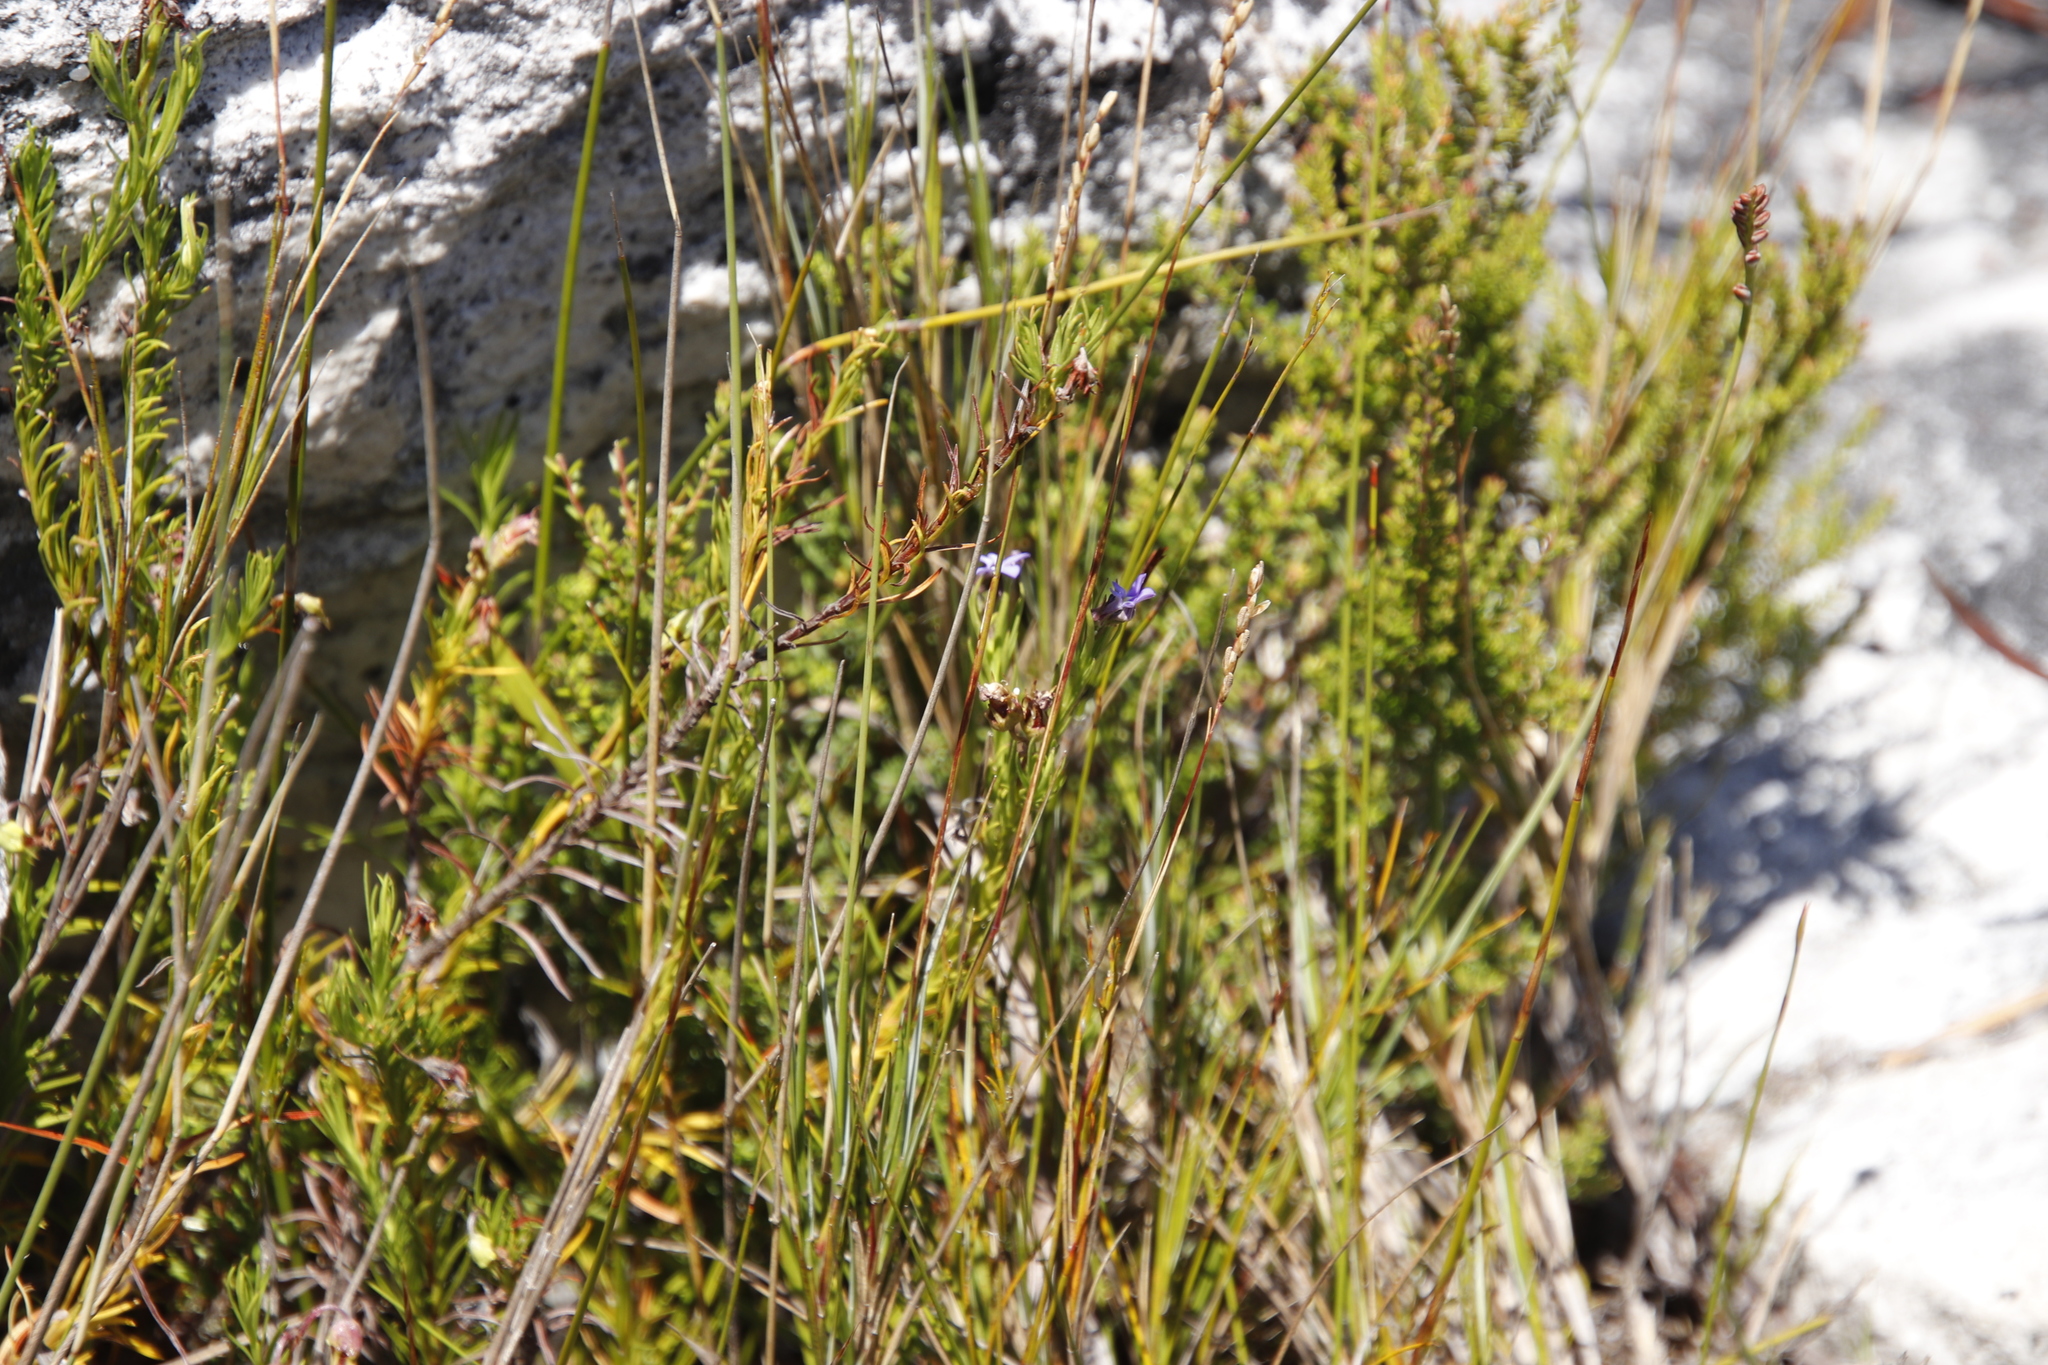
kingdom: Plantae
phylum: Tracheophyta
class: Magnoliopsida
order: Asterales
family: Campanulaceae
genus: Lobelia
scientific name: Lobelia pinifolia
